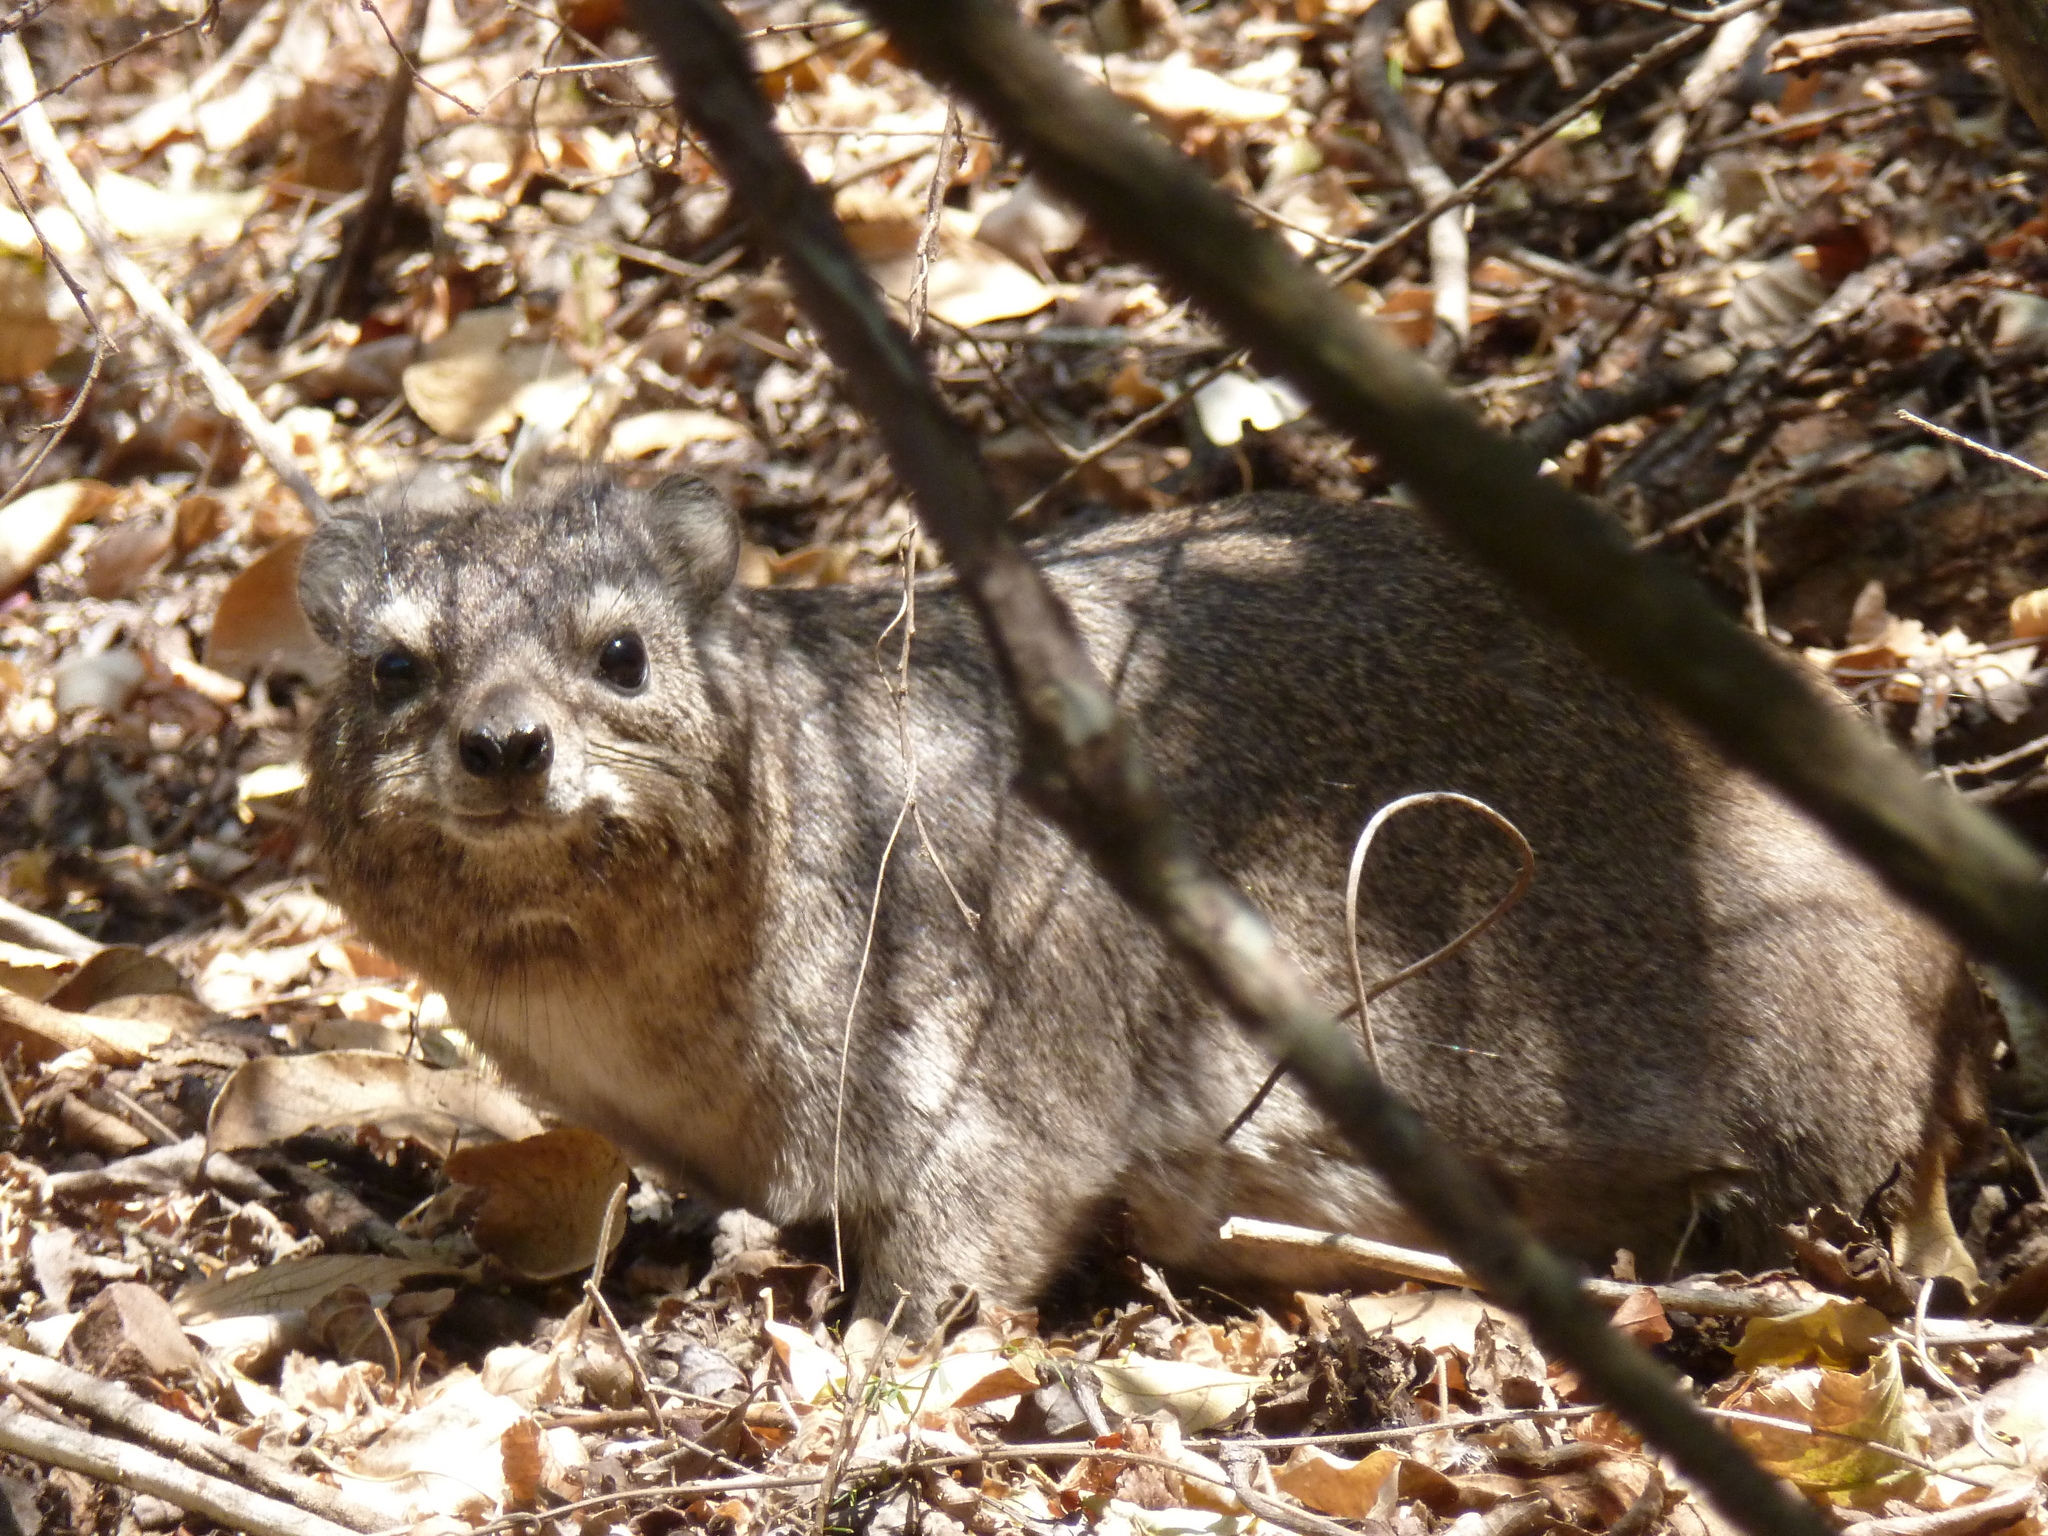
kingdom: Animalia
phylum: Chordata
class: Mammalia
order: Hyracoidea
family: Procaviidae
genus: Procavia
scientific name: Procavia capensis
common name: Rock hyrax
